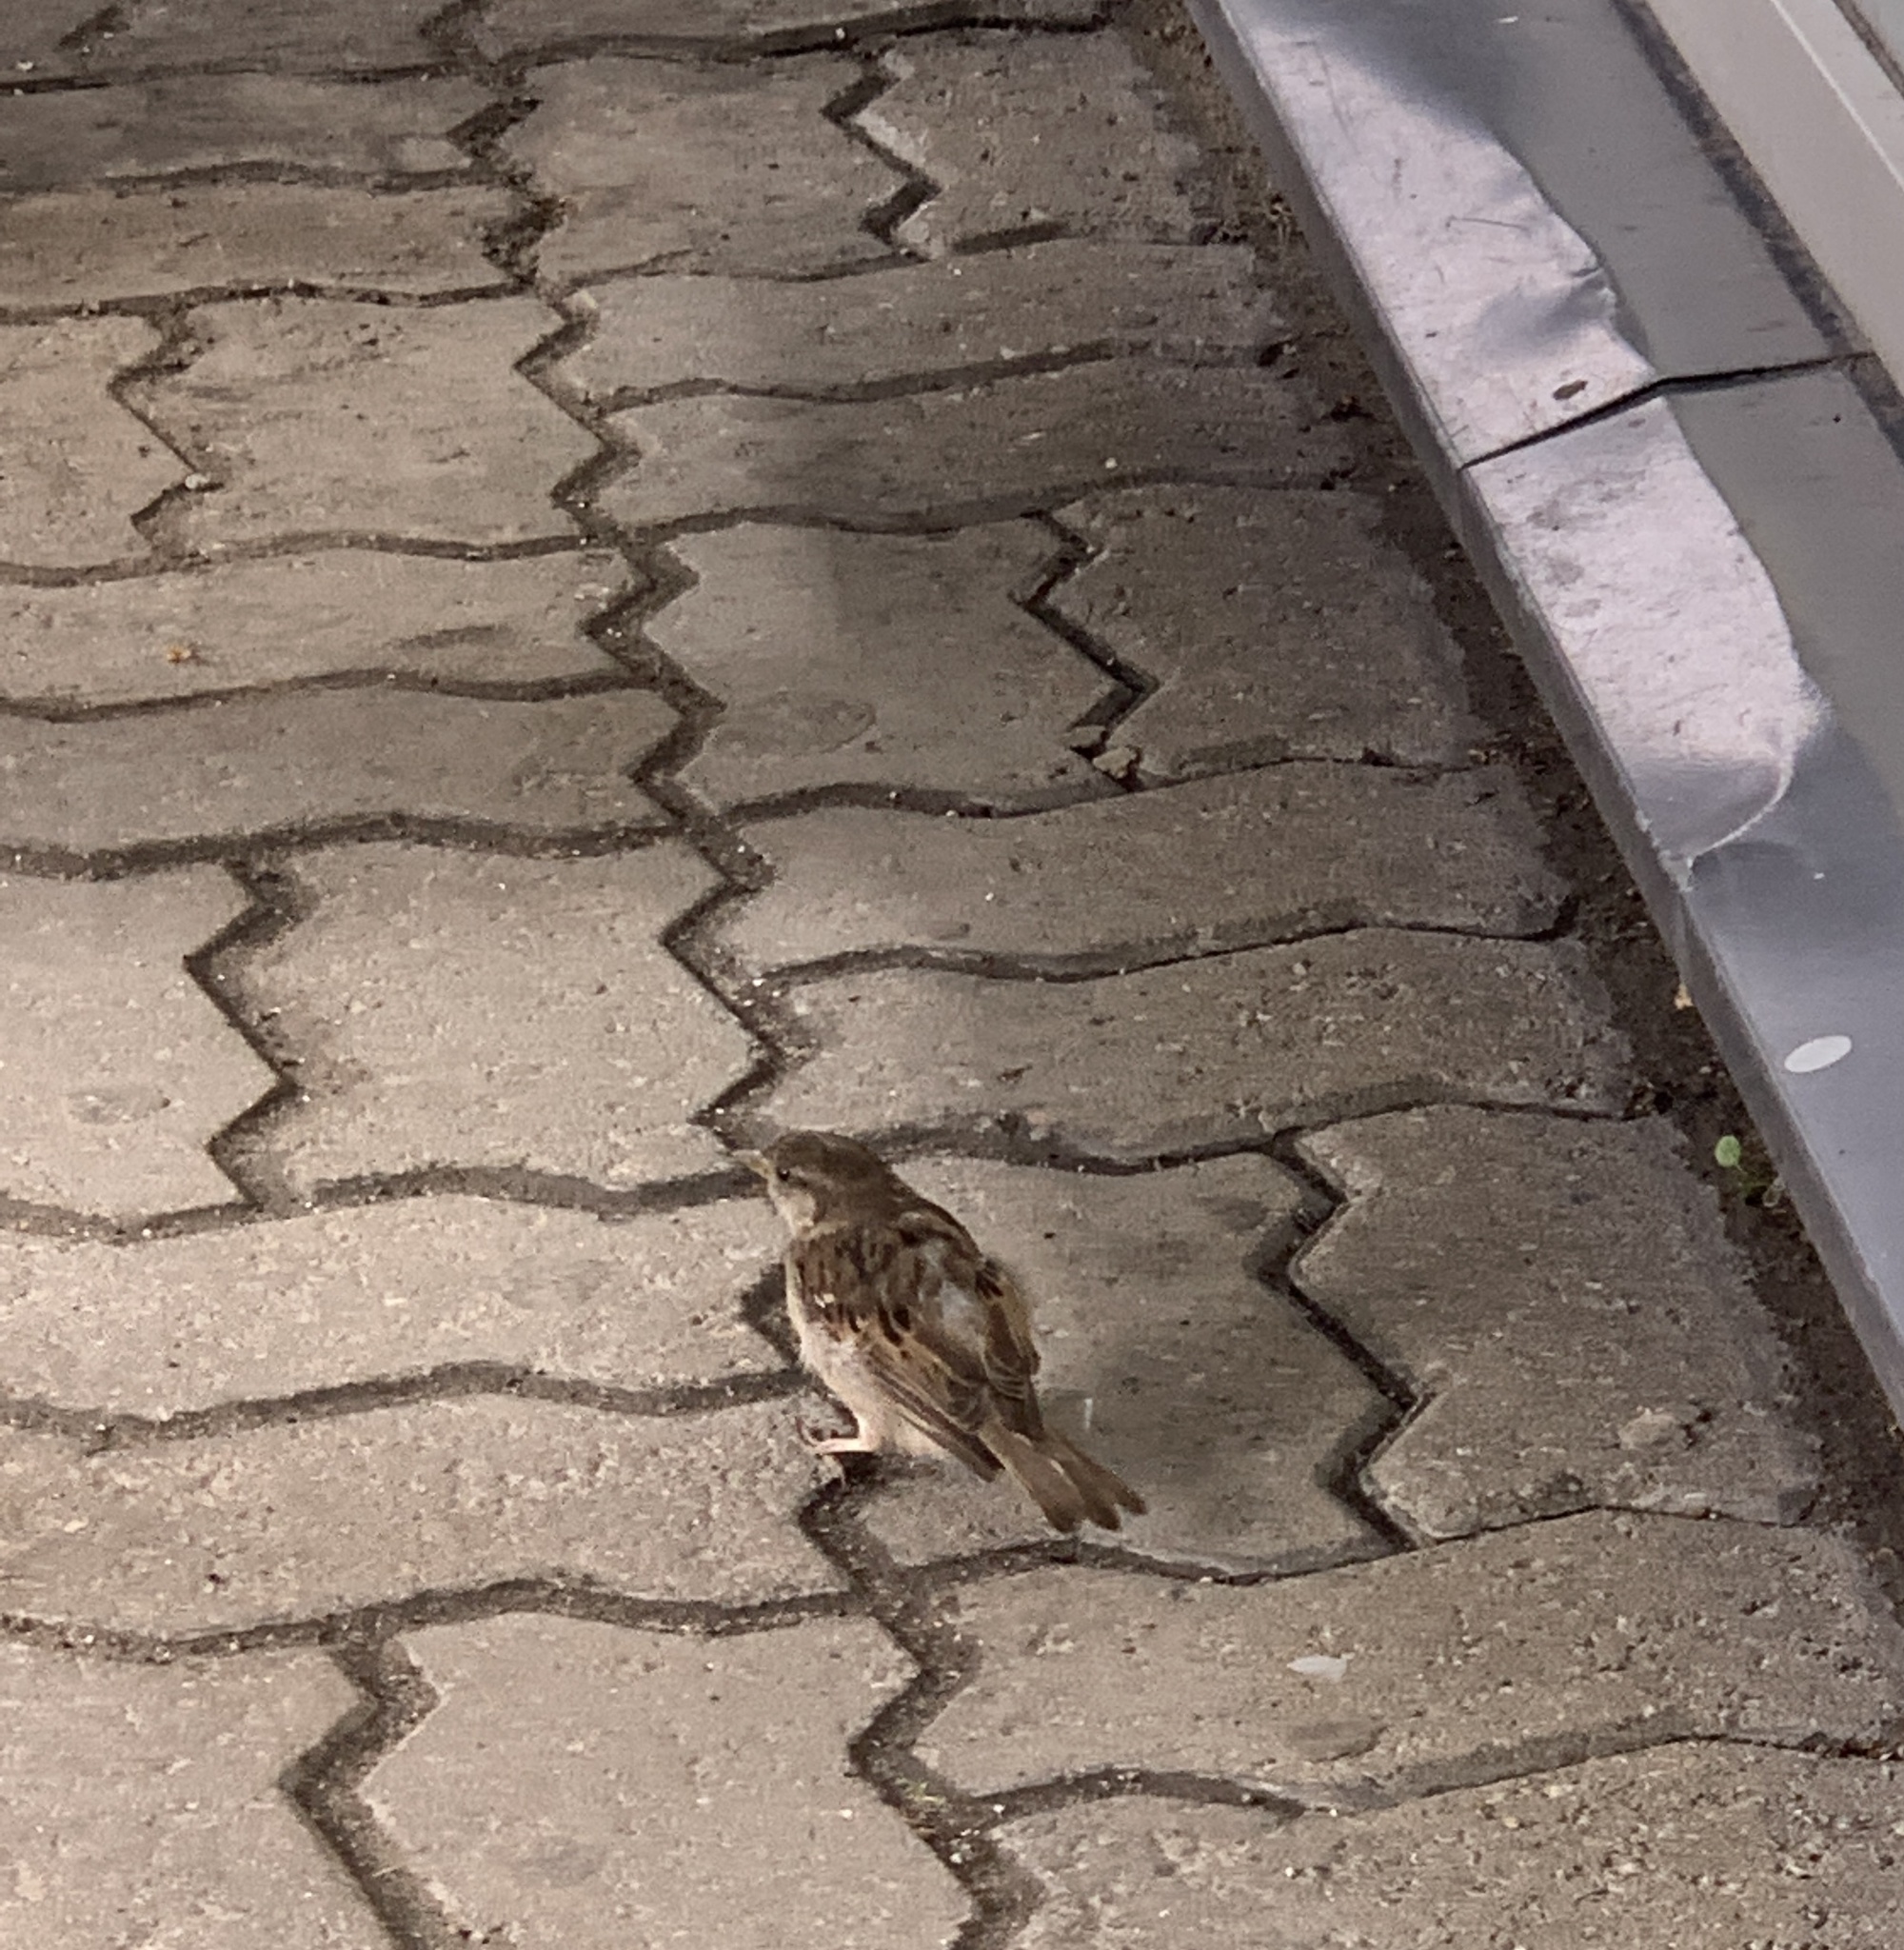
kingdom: Animalia
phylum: Chordata
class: Aves
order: Passeriformes
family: Passeridae
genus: Passer
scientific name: Passer domesticus
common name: House sparrow
